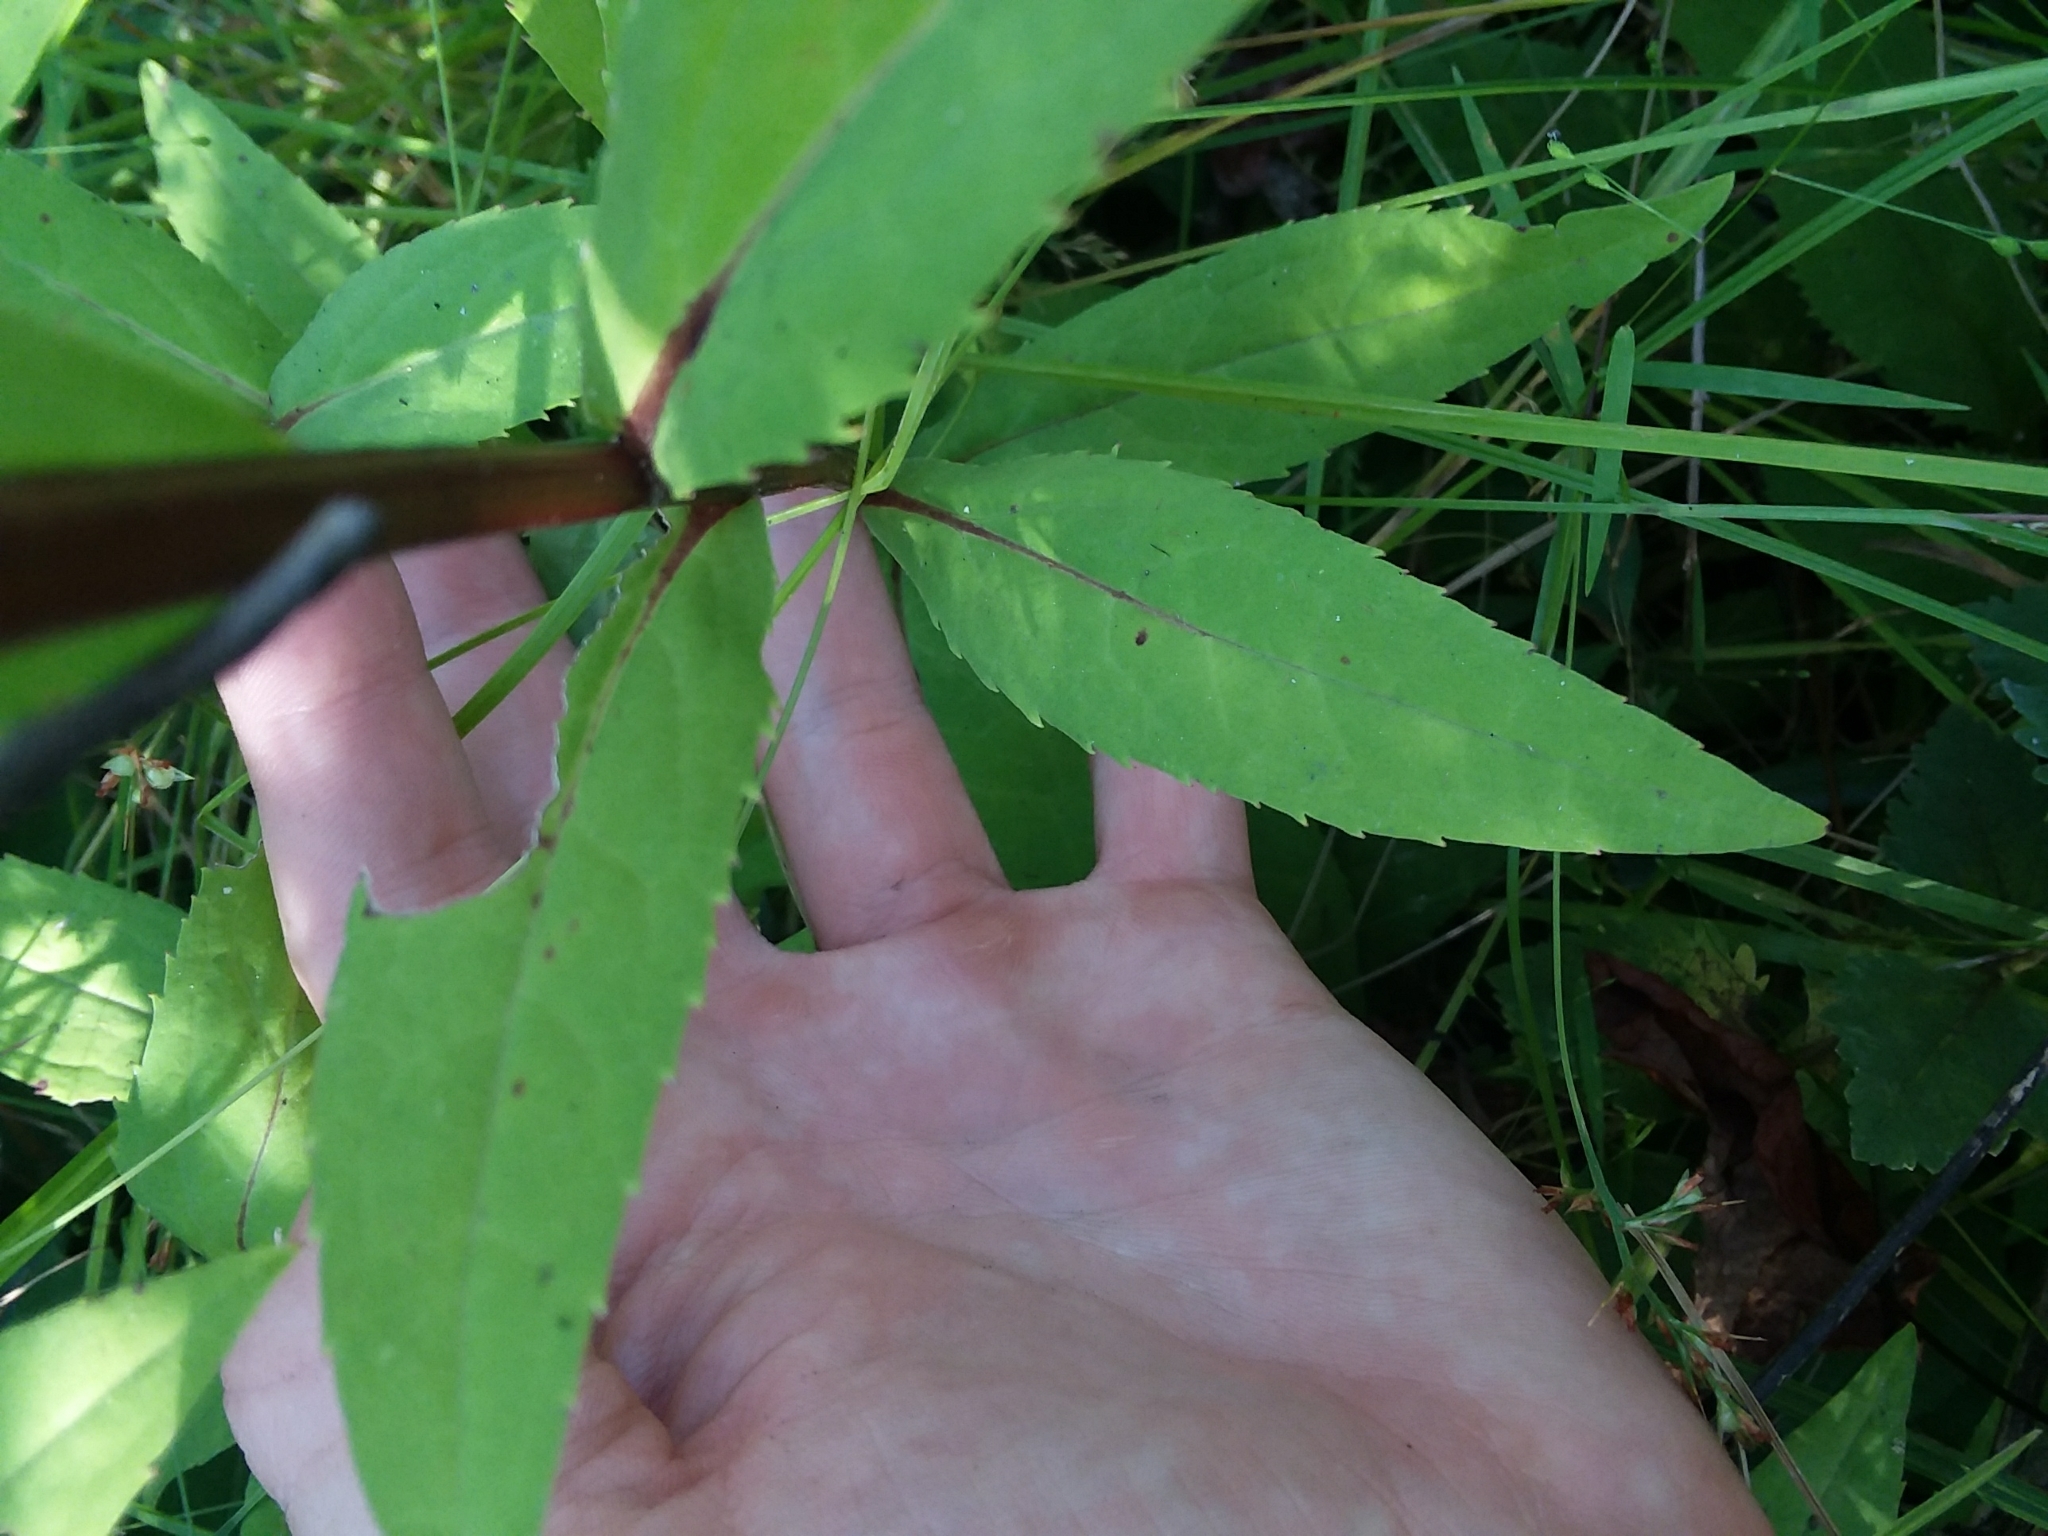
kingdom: Plantae
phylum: Tracheophyta
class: Magnoliopsida
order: Asterales
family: Asteraceae
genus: Solidago
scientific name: Solidago patula
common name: Rough-leaf goldenrod
